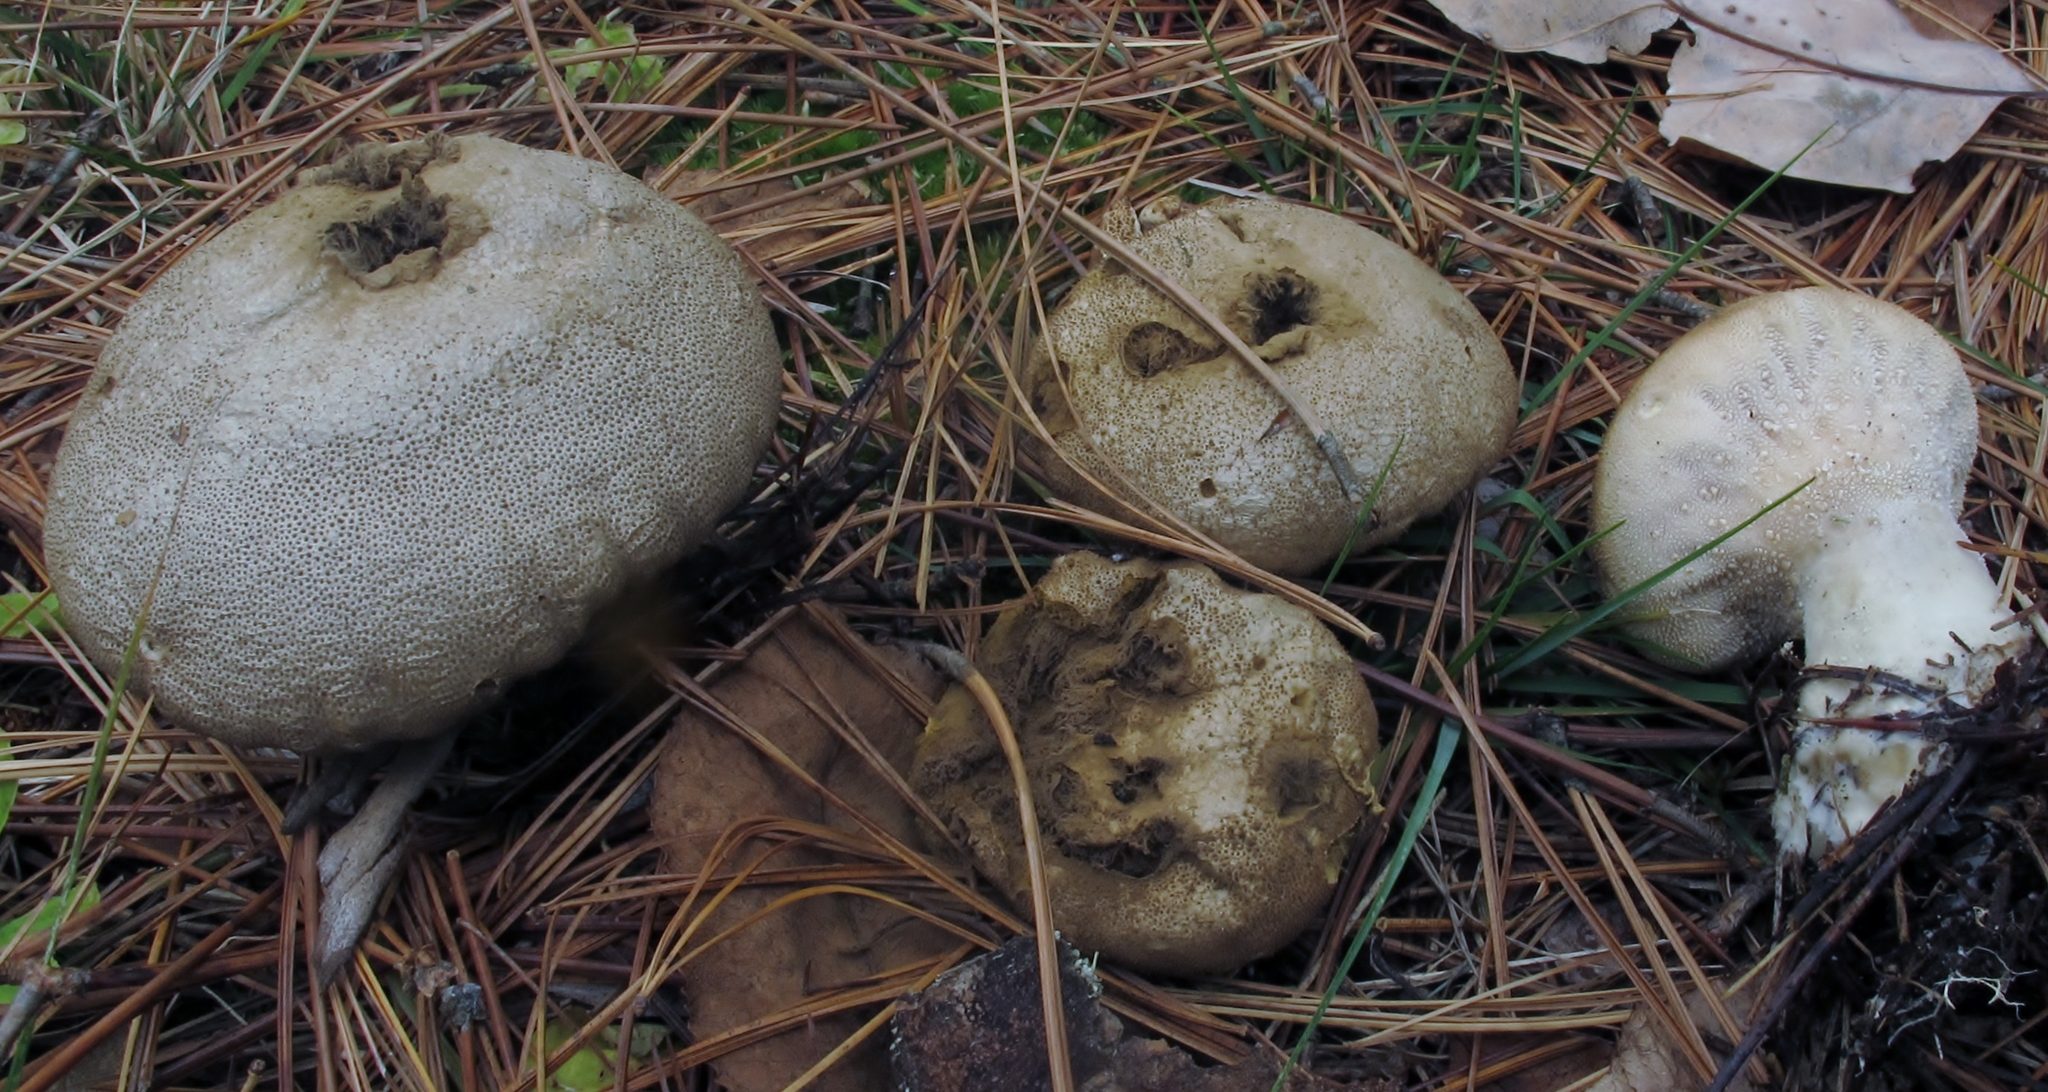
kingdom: Fungi
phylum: Basidiomycota
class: Agaricomycetes
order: Agaricales
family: Lycoperdaceae
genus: Lycoperdon
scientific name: Lycoperdon perlatum
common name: Common puffball
